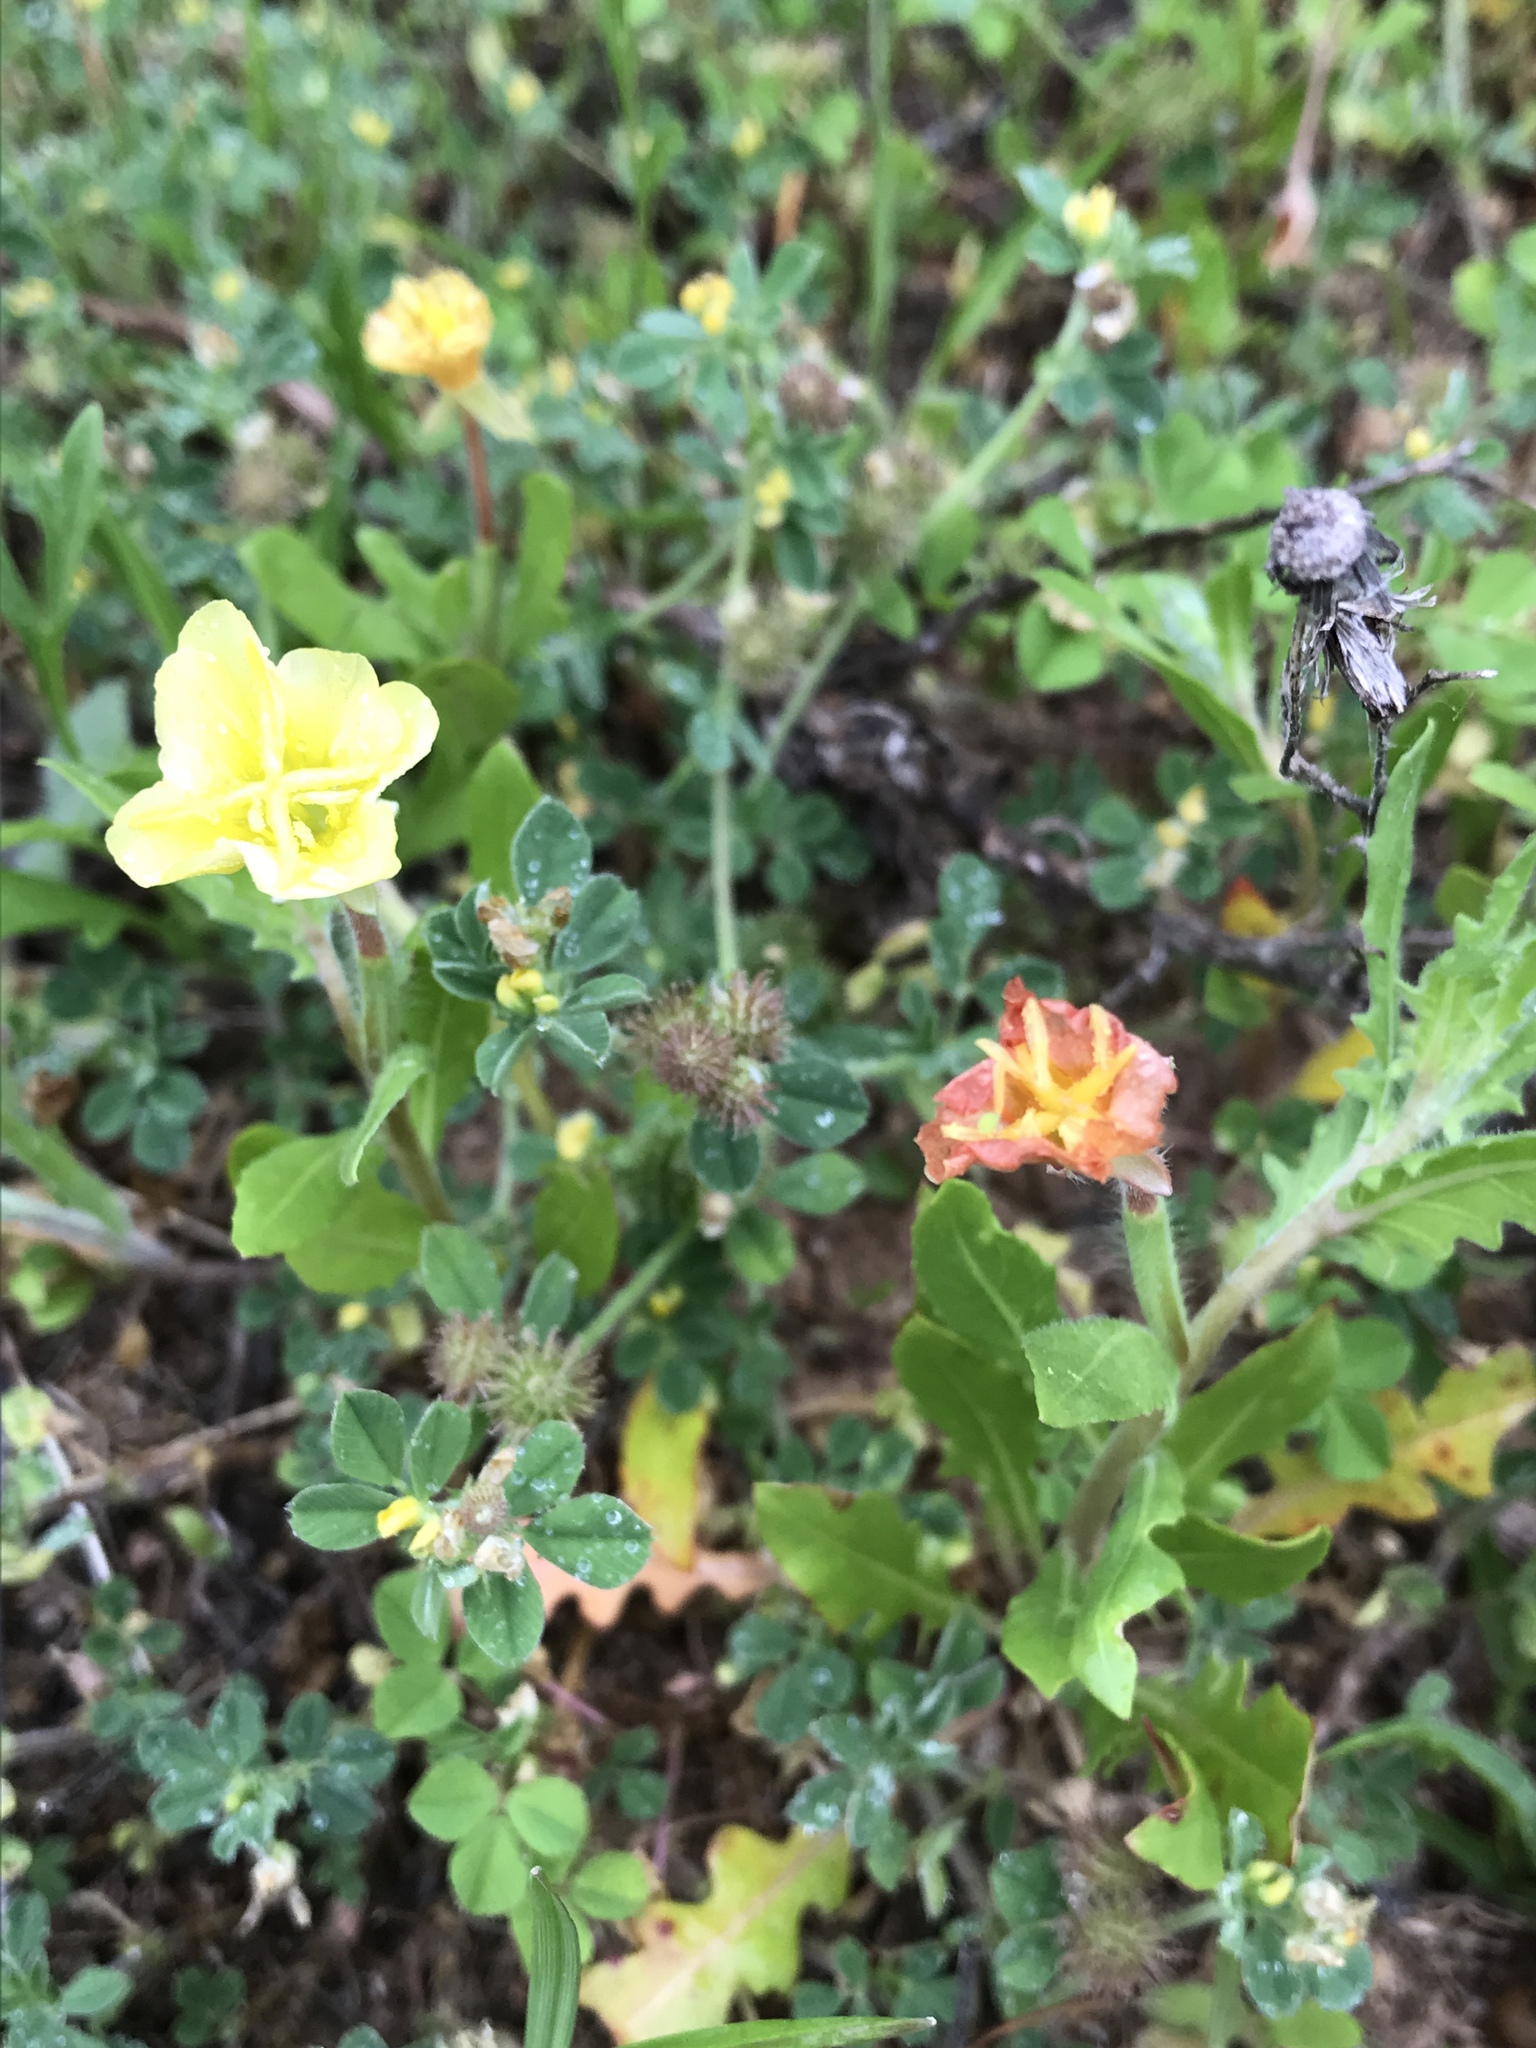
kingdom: Plantae
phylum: Tracheophyta
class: Magnoliopsida
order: Myrtales
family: Onagraceae
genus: Oenothera
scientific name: Oenothera laciniata
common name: Cut-leaved evening-primrose
